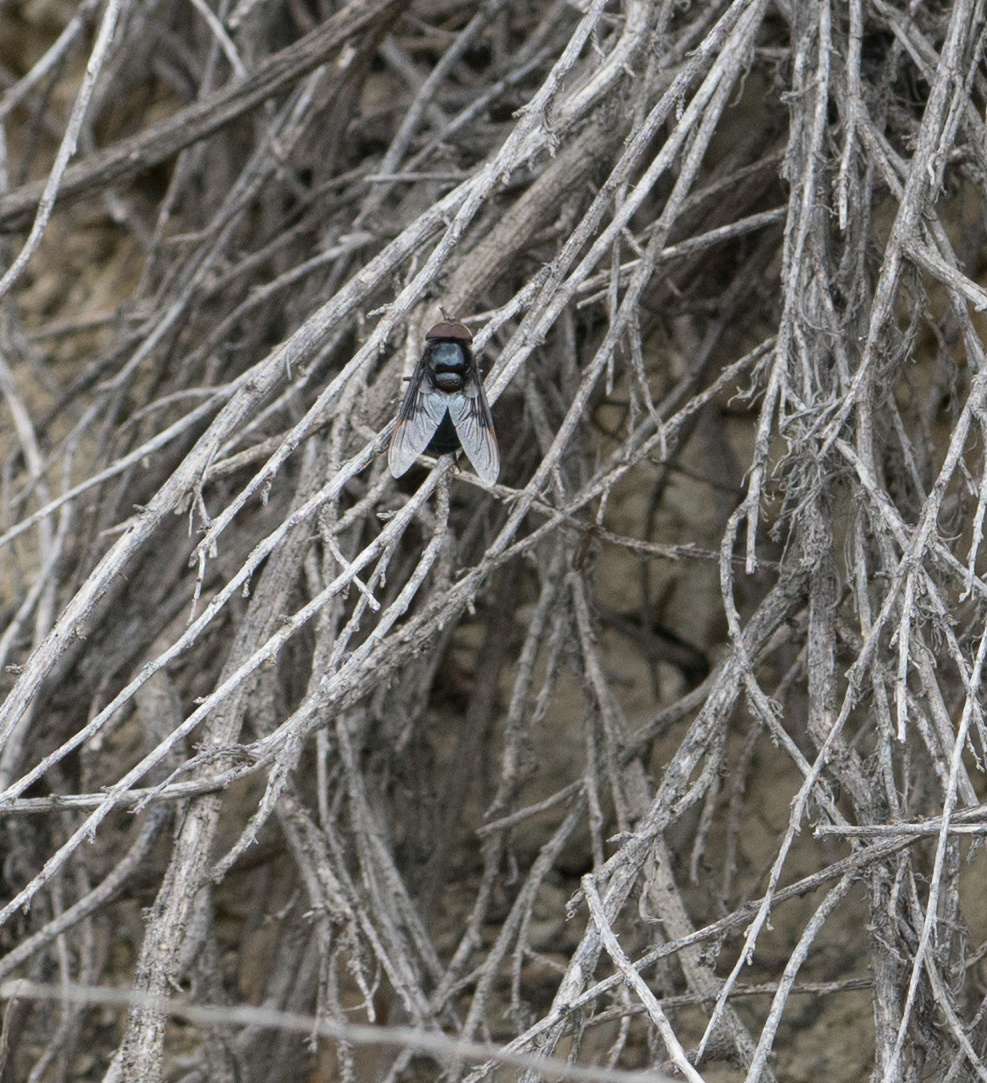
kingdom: Animalia
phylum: Arthropoda
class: Insecta
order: Diptera
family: Syrphidae
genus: Copestylum
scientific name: Copestylum
